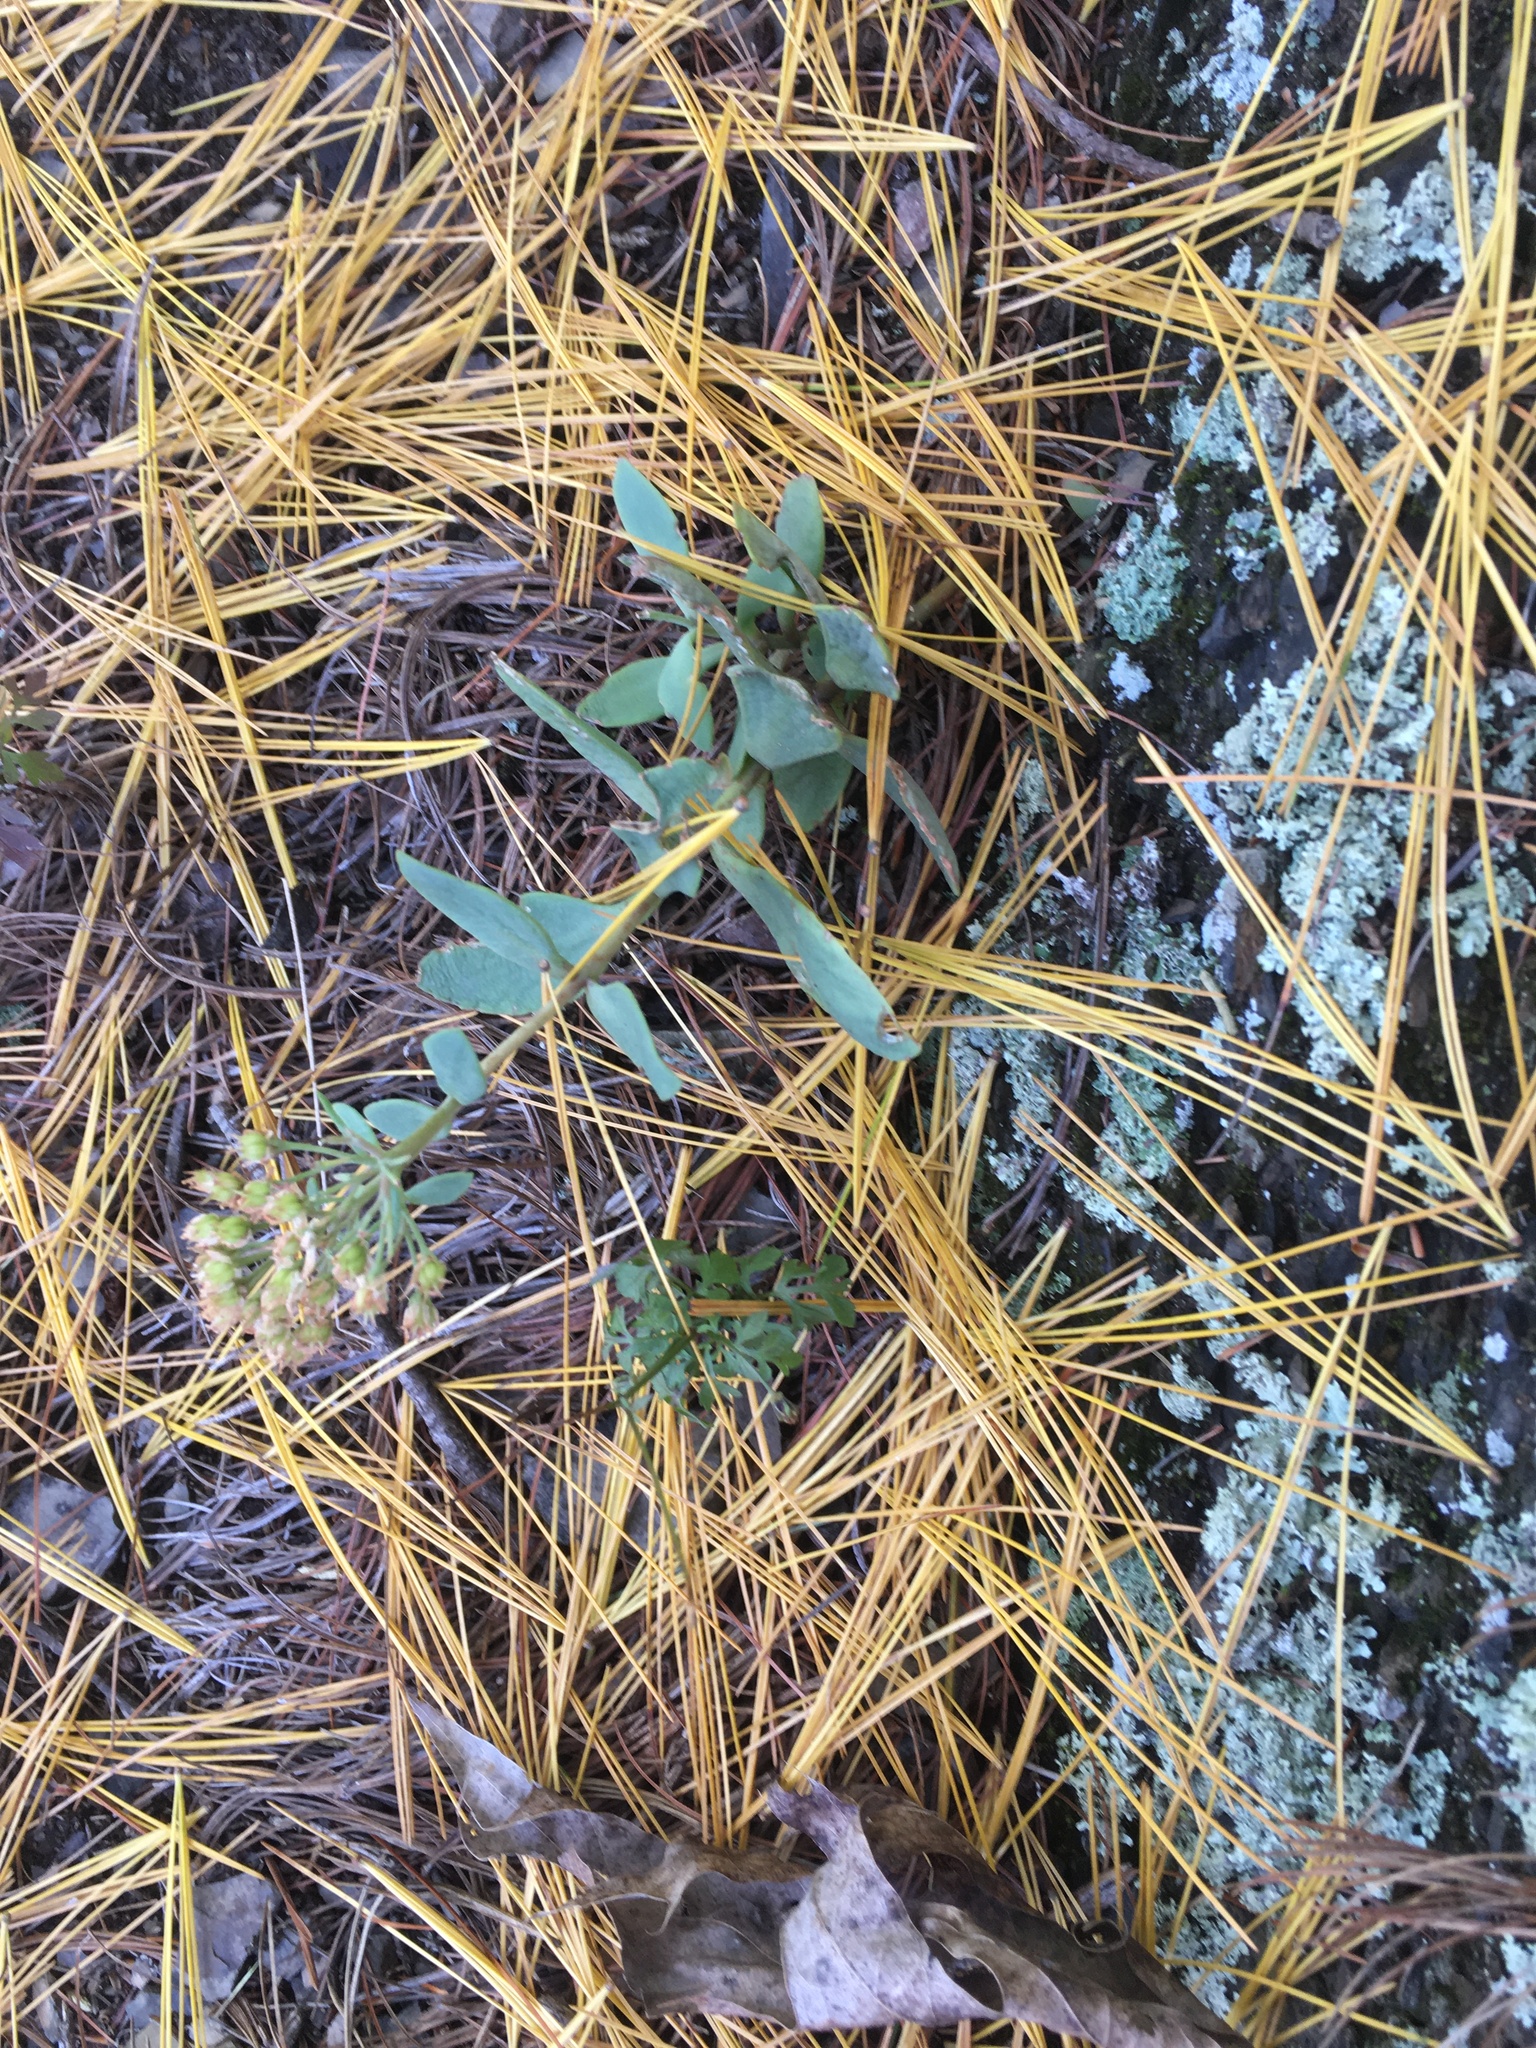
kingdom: Plantae
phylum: Tracheophyta
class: Magnoliopsida
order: Saxifragales
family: Crassulaceae
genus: Hylotelephium
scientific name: Hylotelephium telephioides
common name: Allegheny stonecrop
